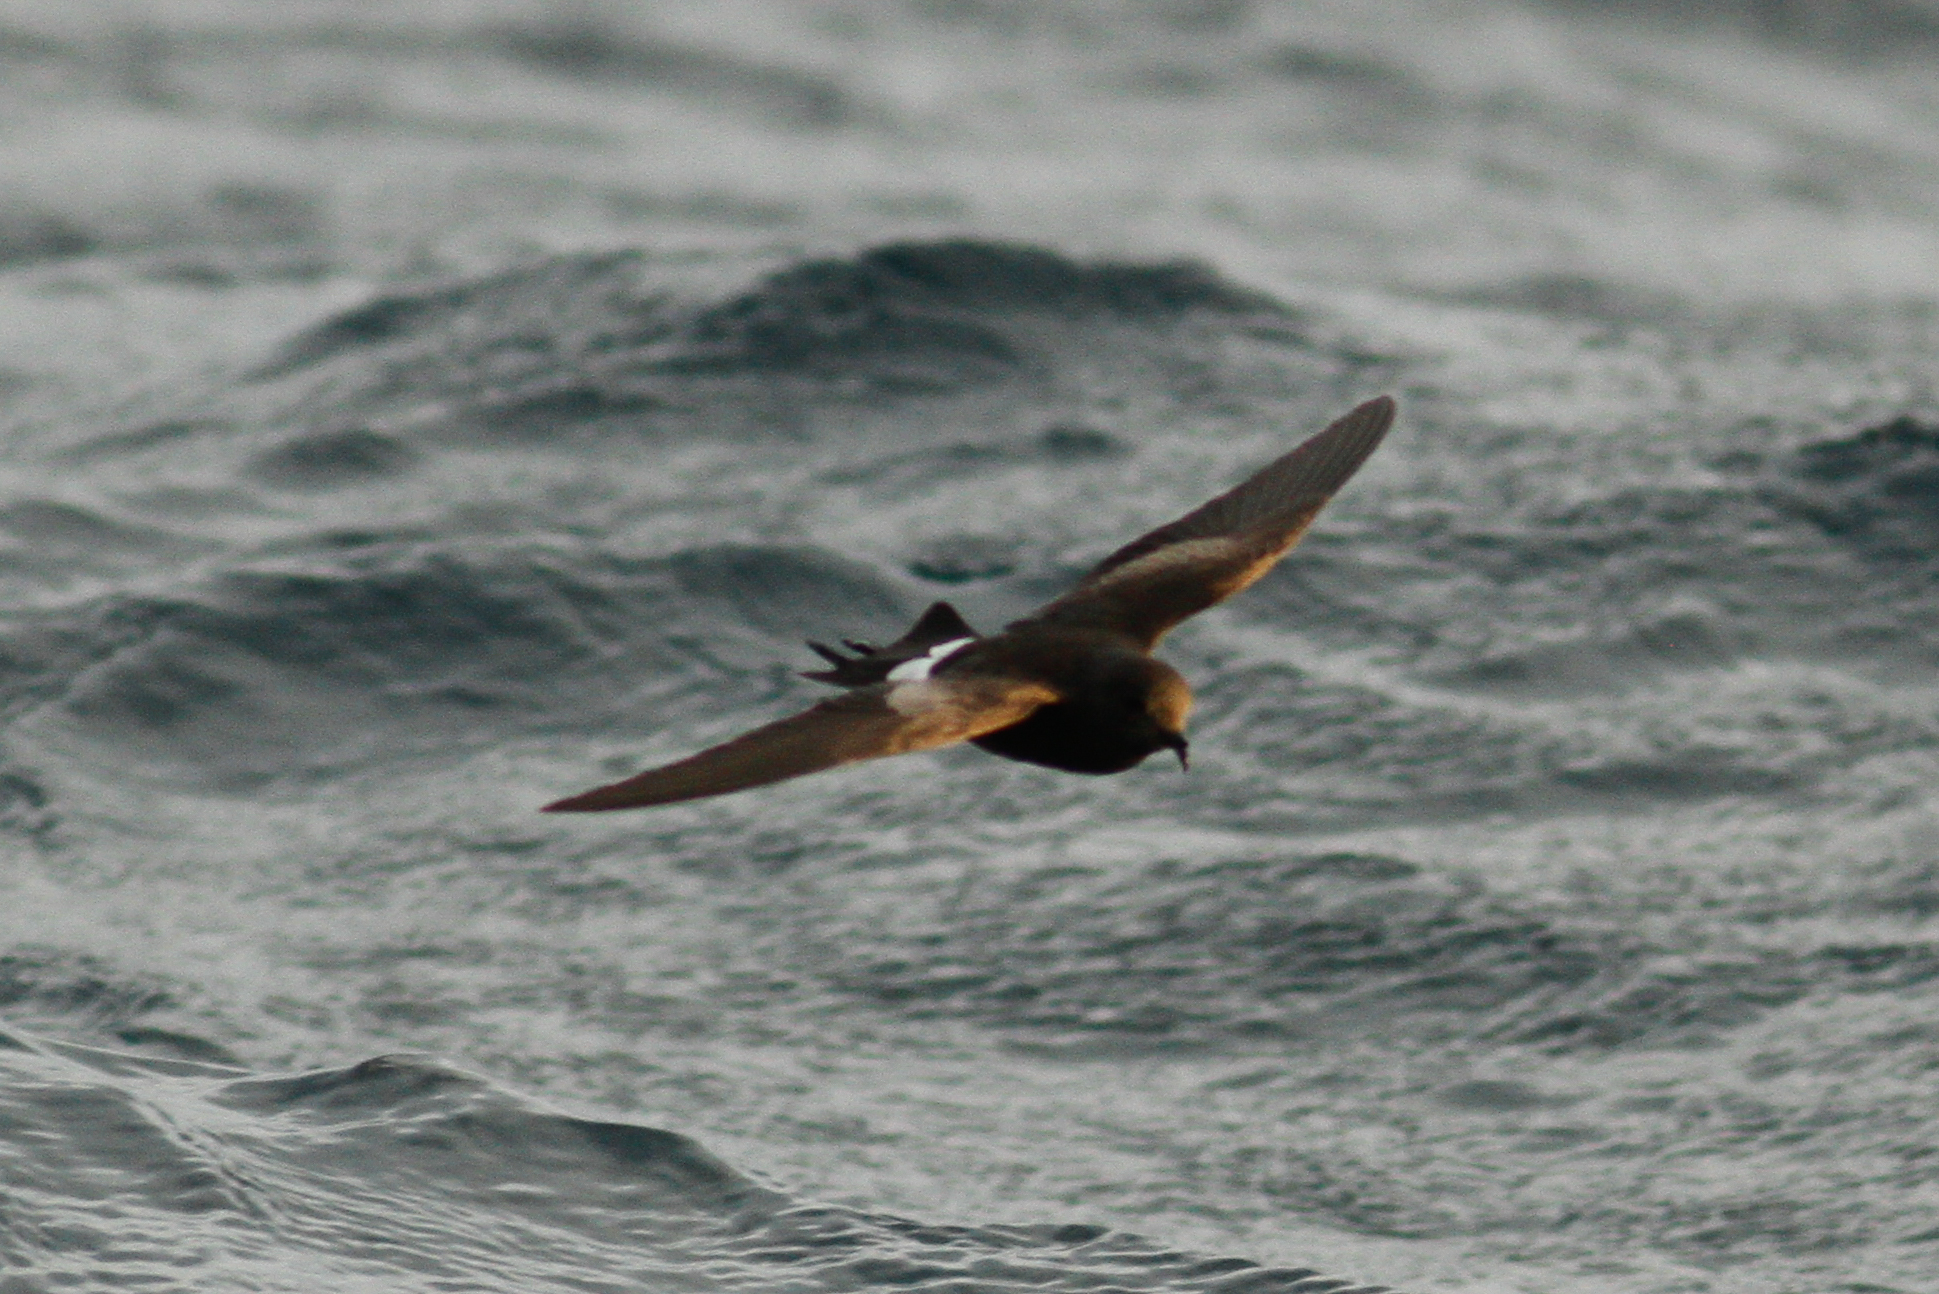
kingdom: Animalia
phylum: Chordata
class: Aves
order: Procellariiformes
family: Hydrobatidae
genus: Oceanites
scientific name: Oceanites oceanicus
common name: Wilson's storm petrel
